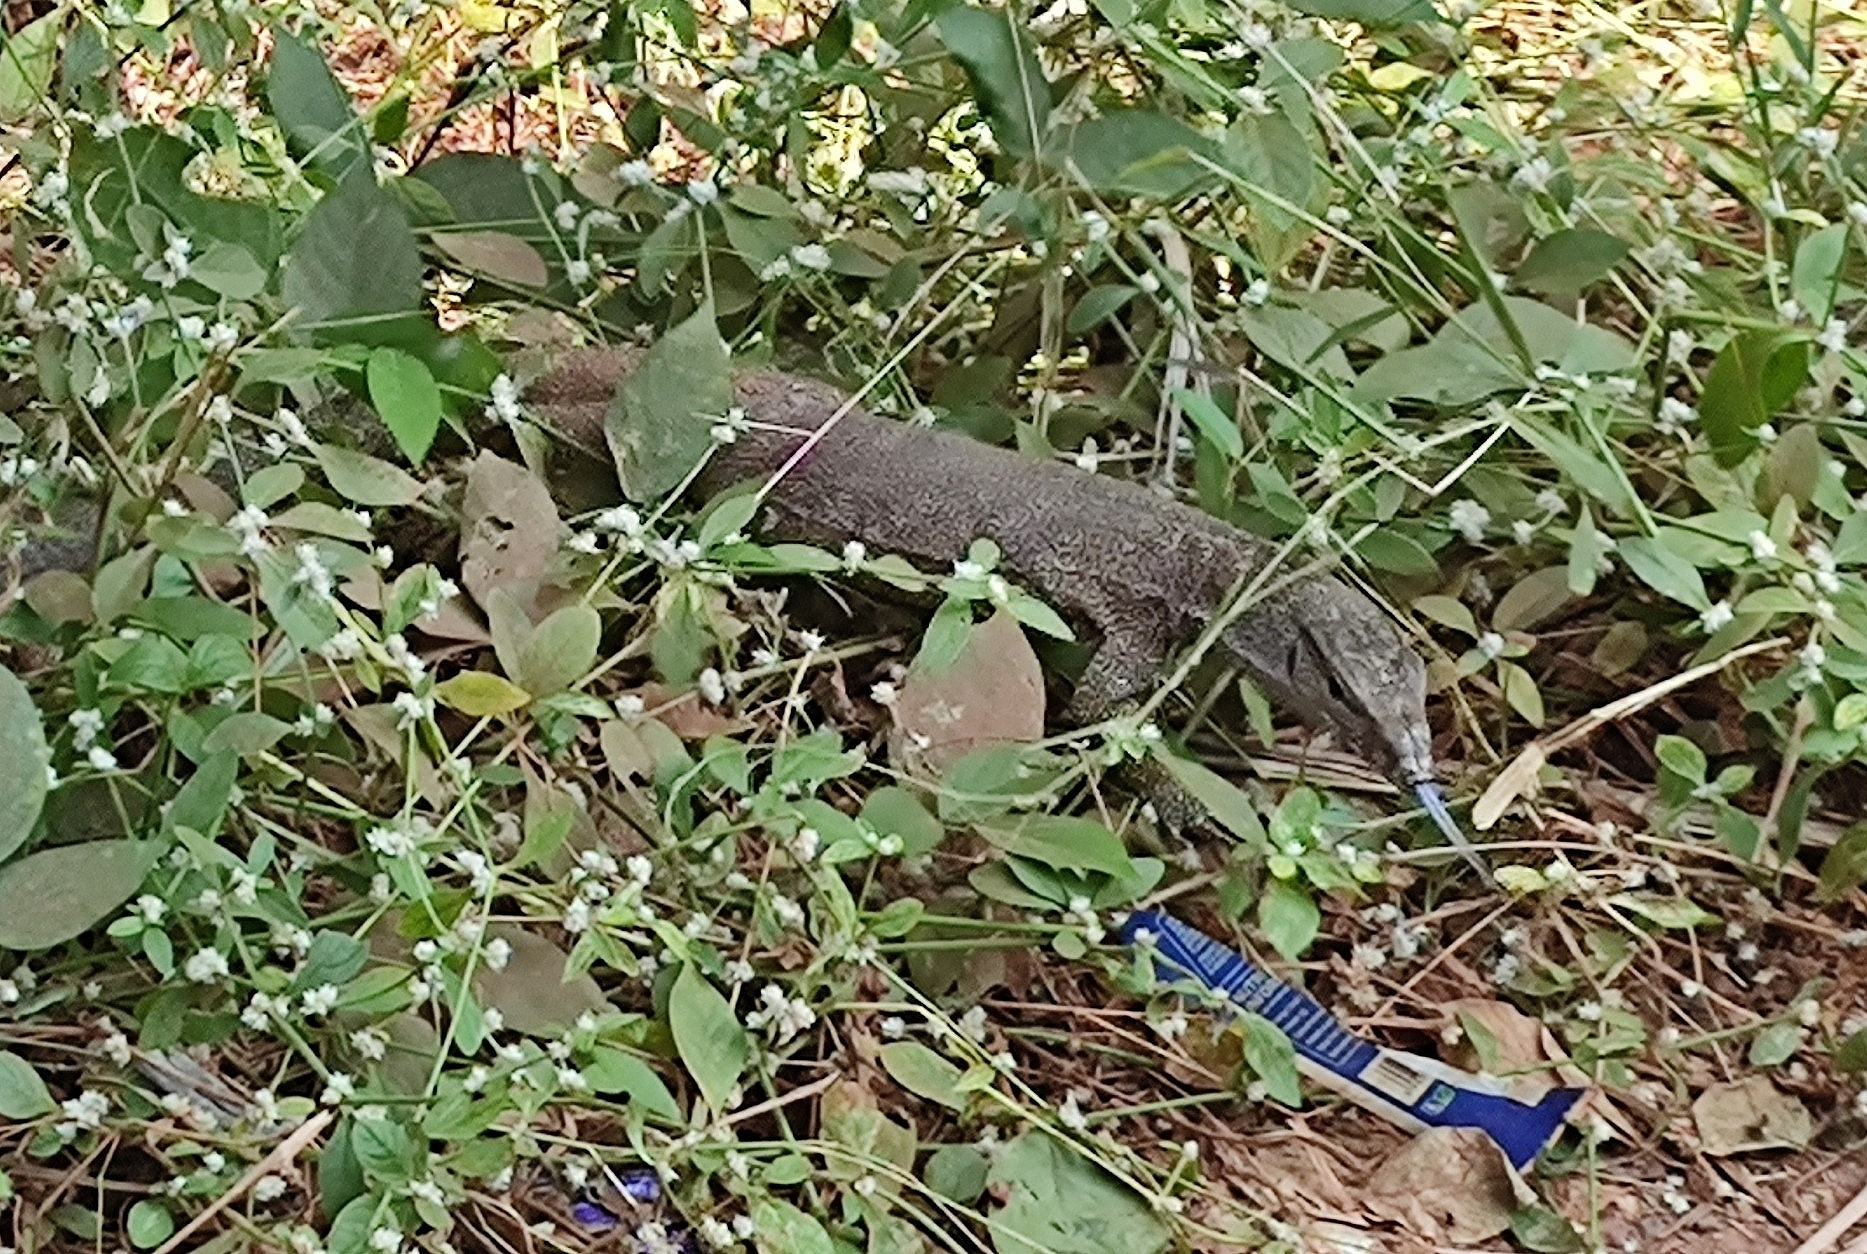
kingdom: Animalia
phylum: Chordata
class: Squamata
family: Varanidae
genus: Varanus
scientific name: Varanus bengalensis
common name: Bengal monitor
